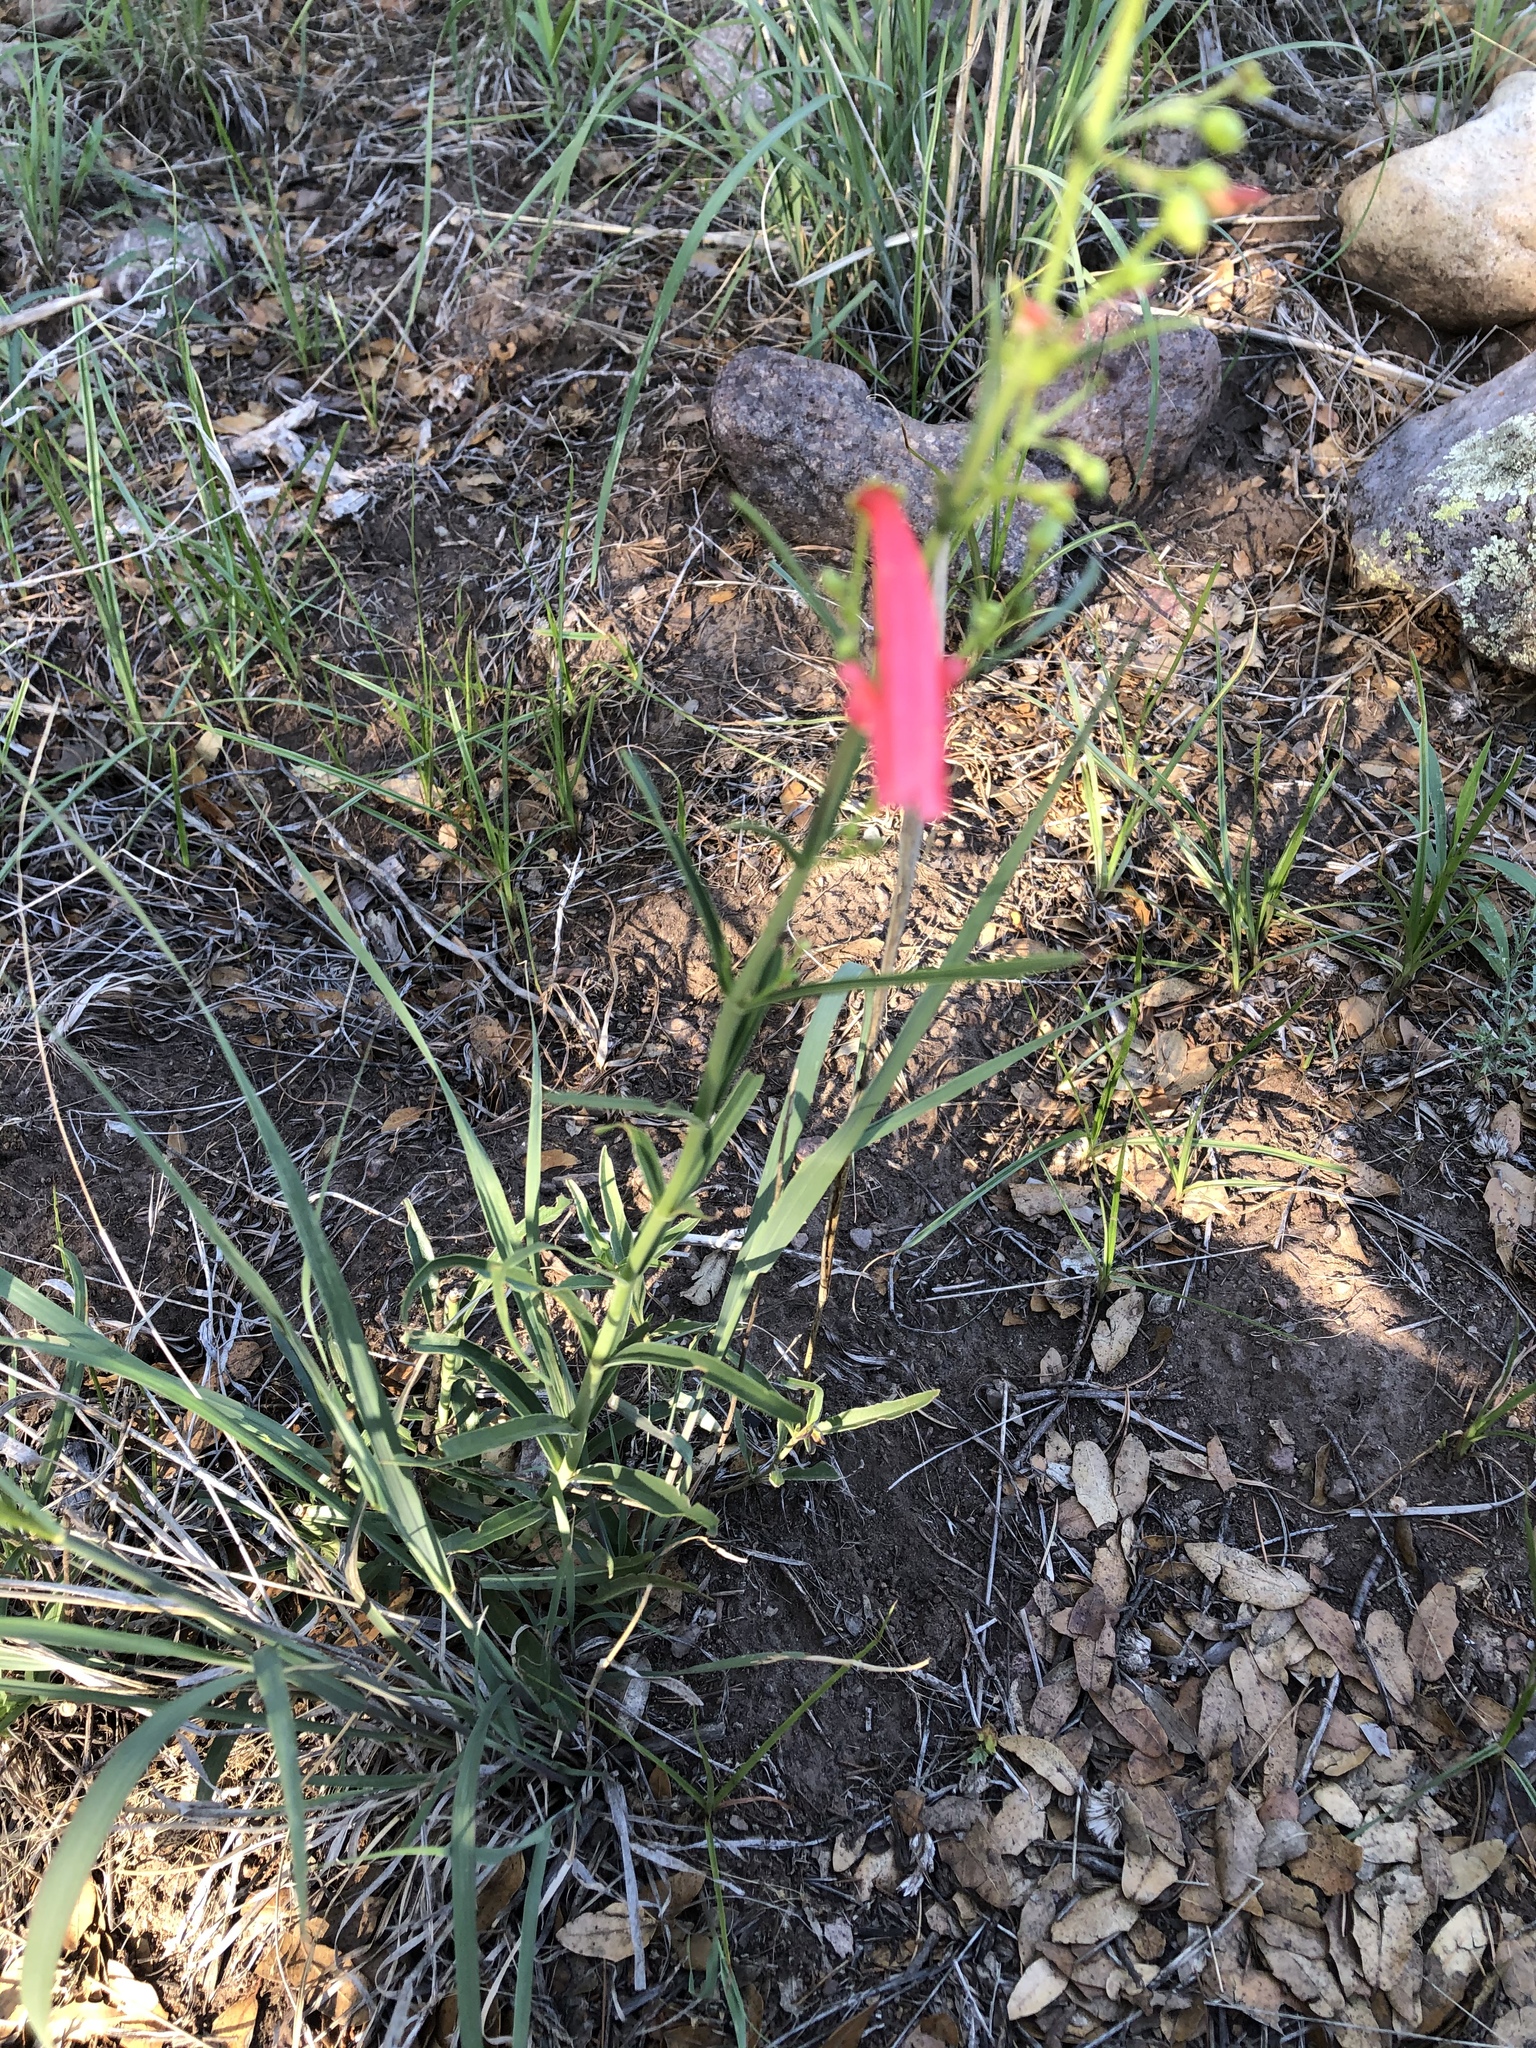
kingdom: Plantae
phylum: Tracheophyta
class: Magnoliopsida
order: Lamiales
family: Plantaginaceae
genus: Penstemon
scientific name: Penstemon barbatus
